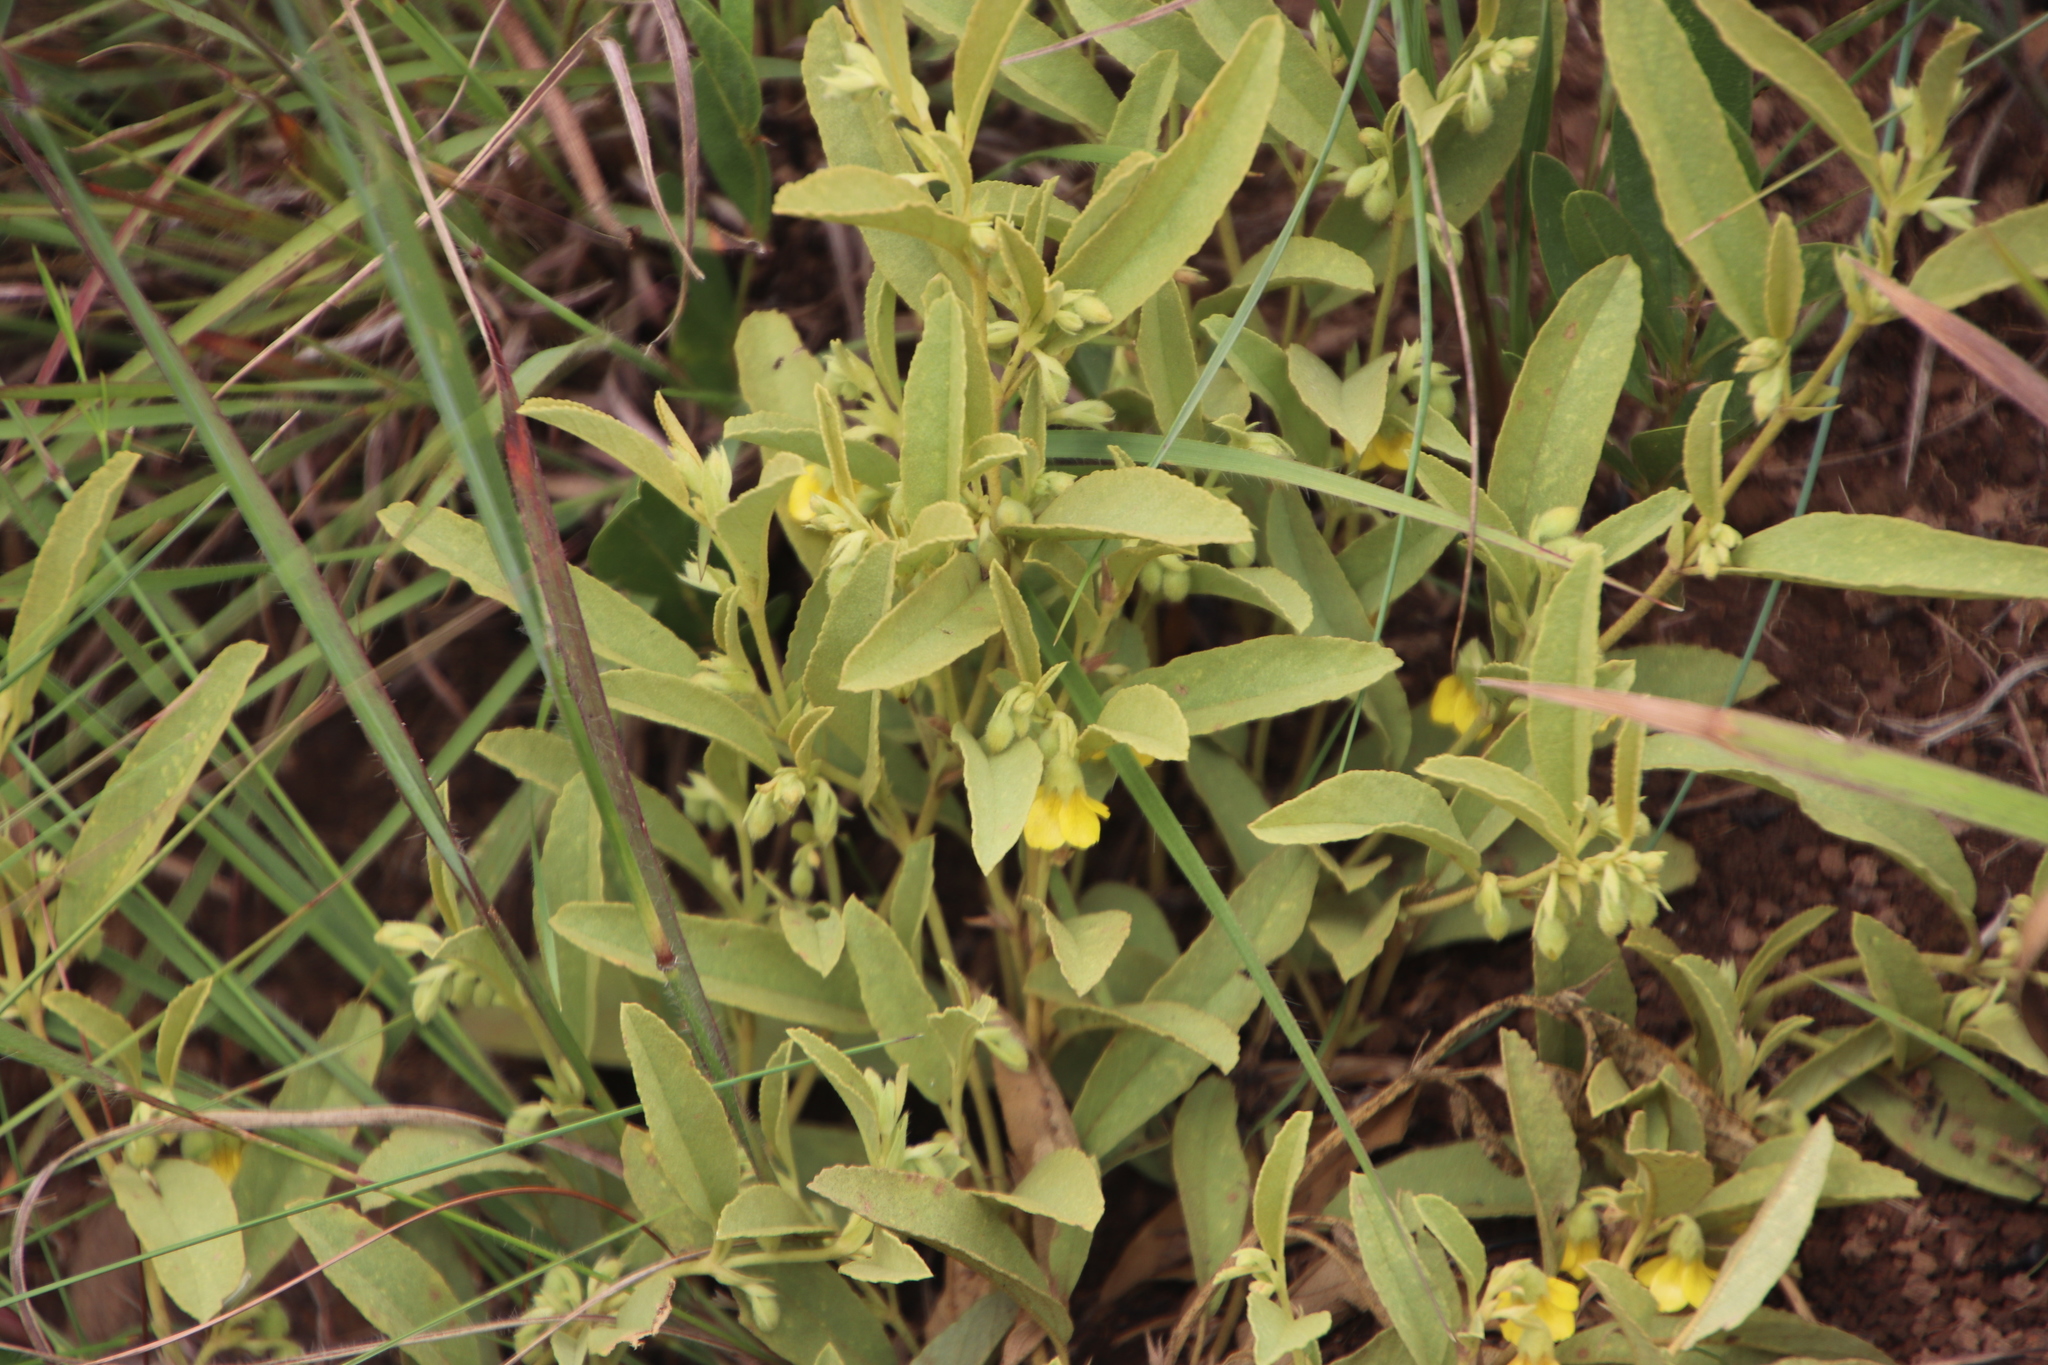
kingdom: Plantae
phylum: Tracheophyta
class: Magnoliopsida
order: Malvales
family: Malvaceae
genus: Hermannia
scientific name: Hermannia montana
